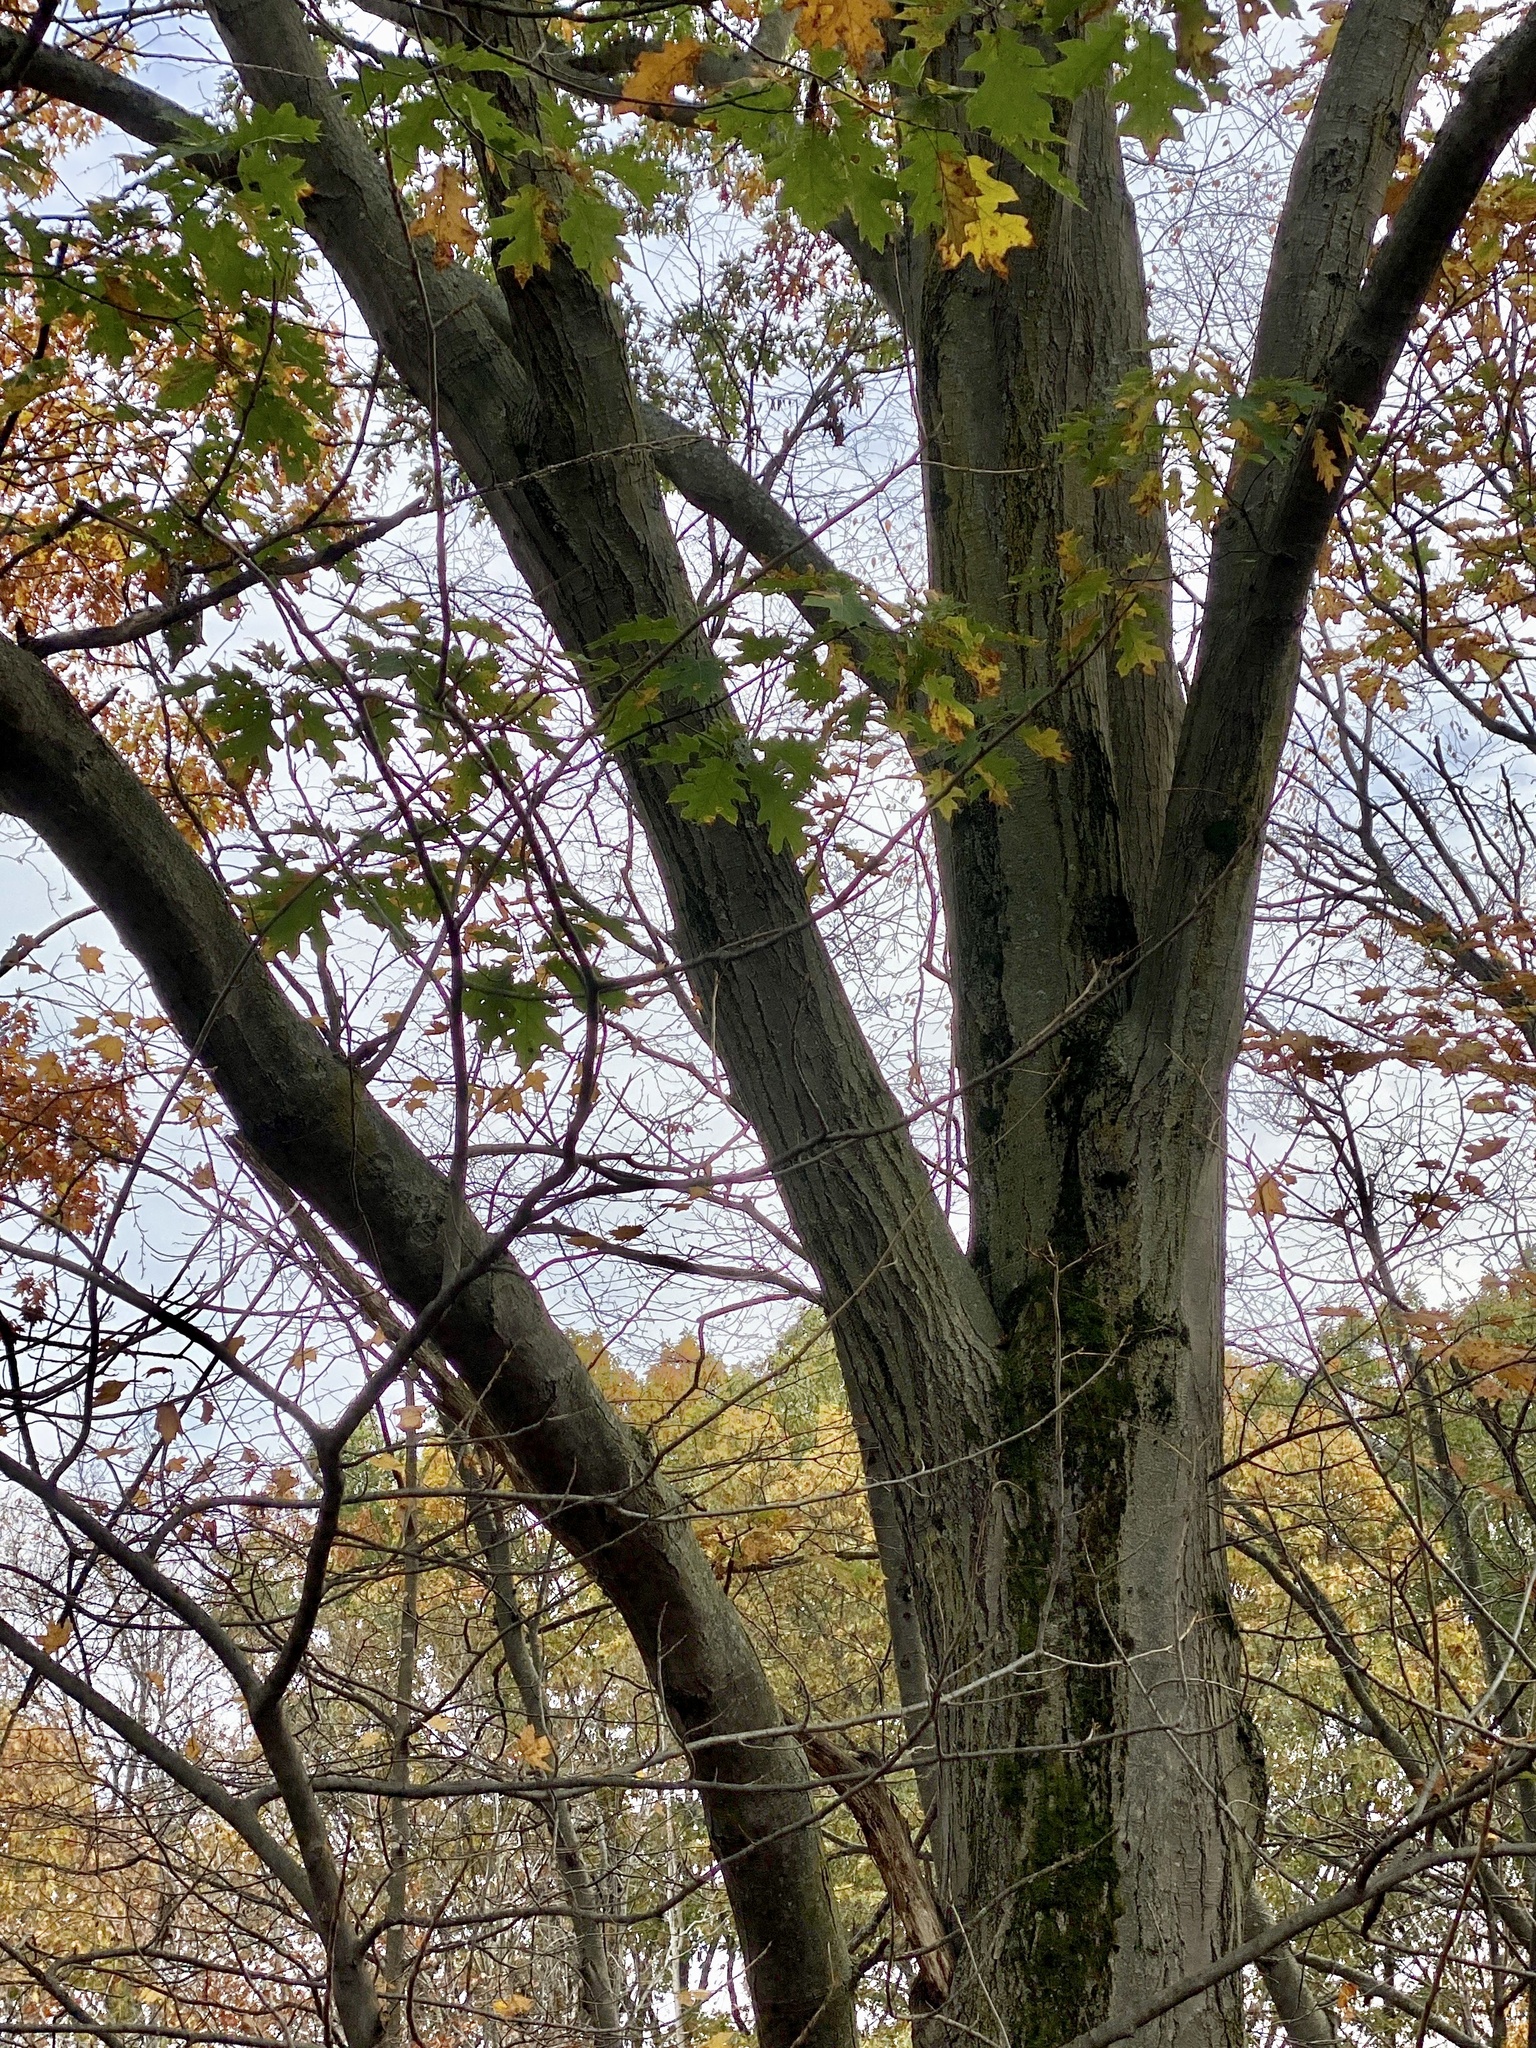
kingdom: Plantae
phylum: Tracheophyta
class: Magnoliopsida
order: Fagales
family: Fagaceae
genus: Quercus
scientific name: Quercus rubra
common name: Red oak
